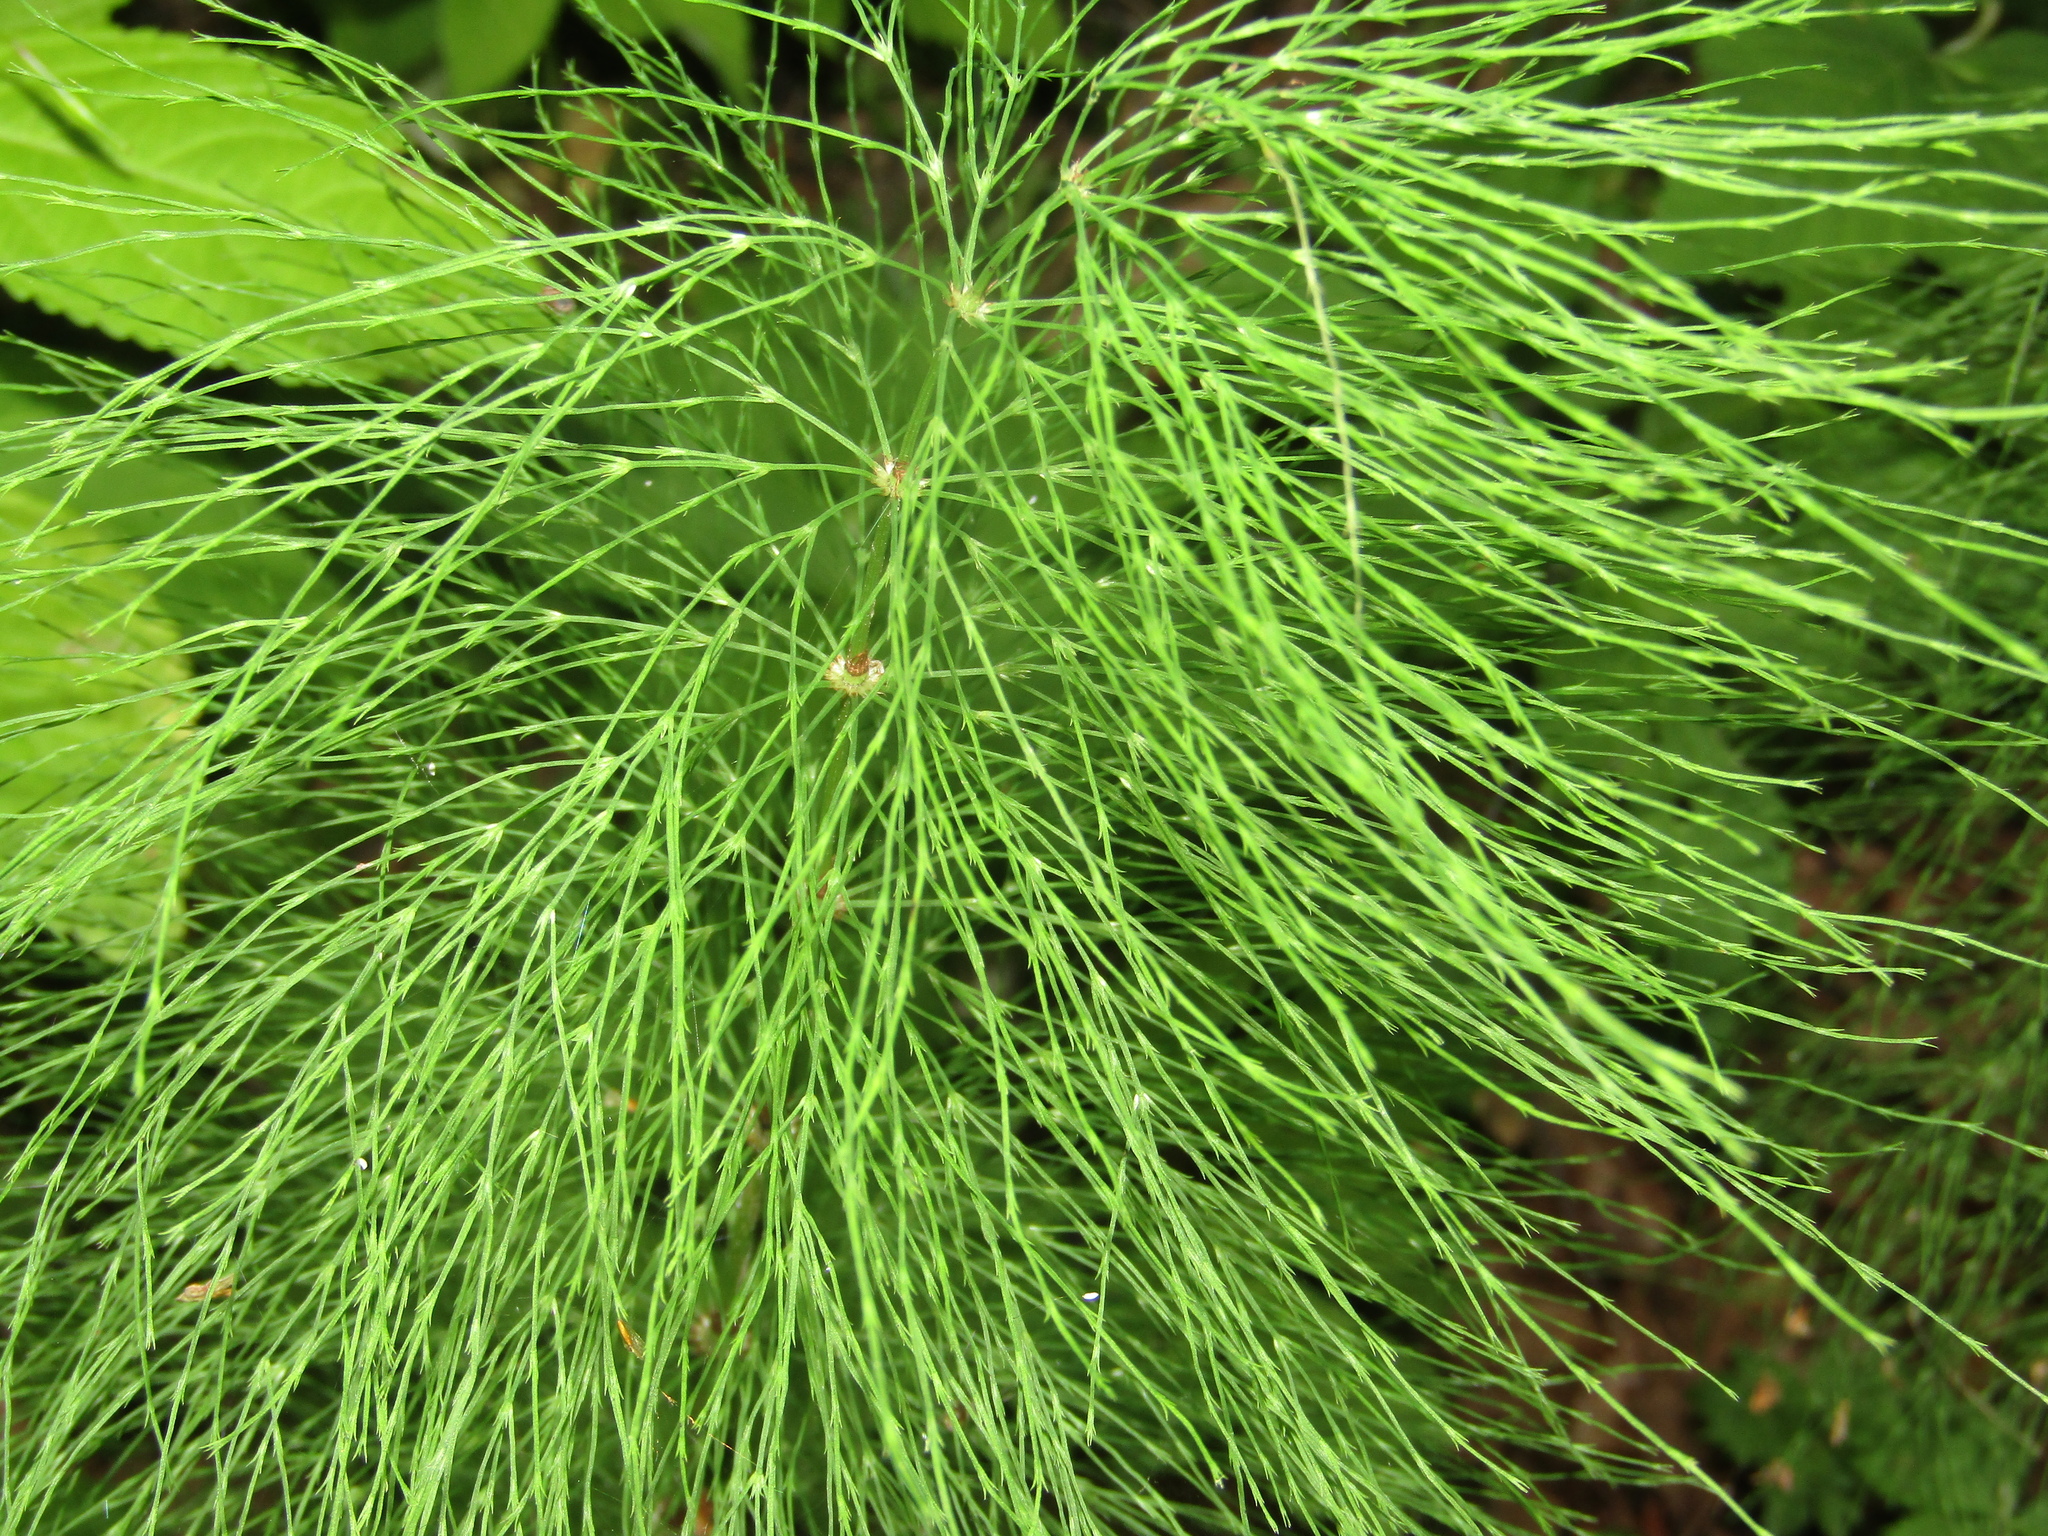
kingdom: Plantae
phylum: Tracheophyta
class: Polypodiopsida
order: Equisetales
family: Equisetaceae
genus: Equisetum
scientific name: Equisetum sylvaticum
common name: Wood horsetail
